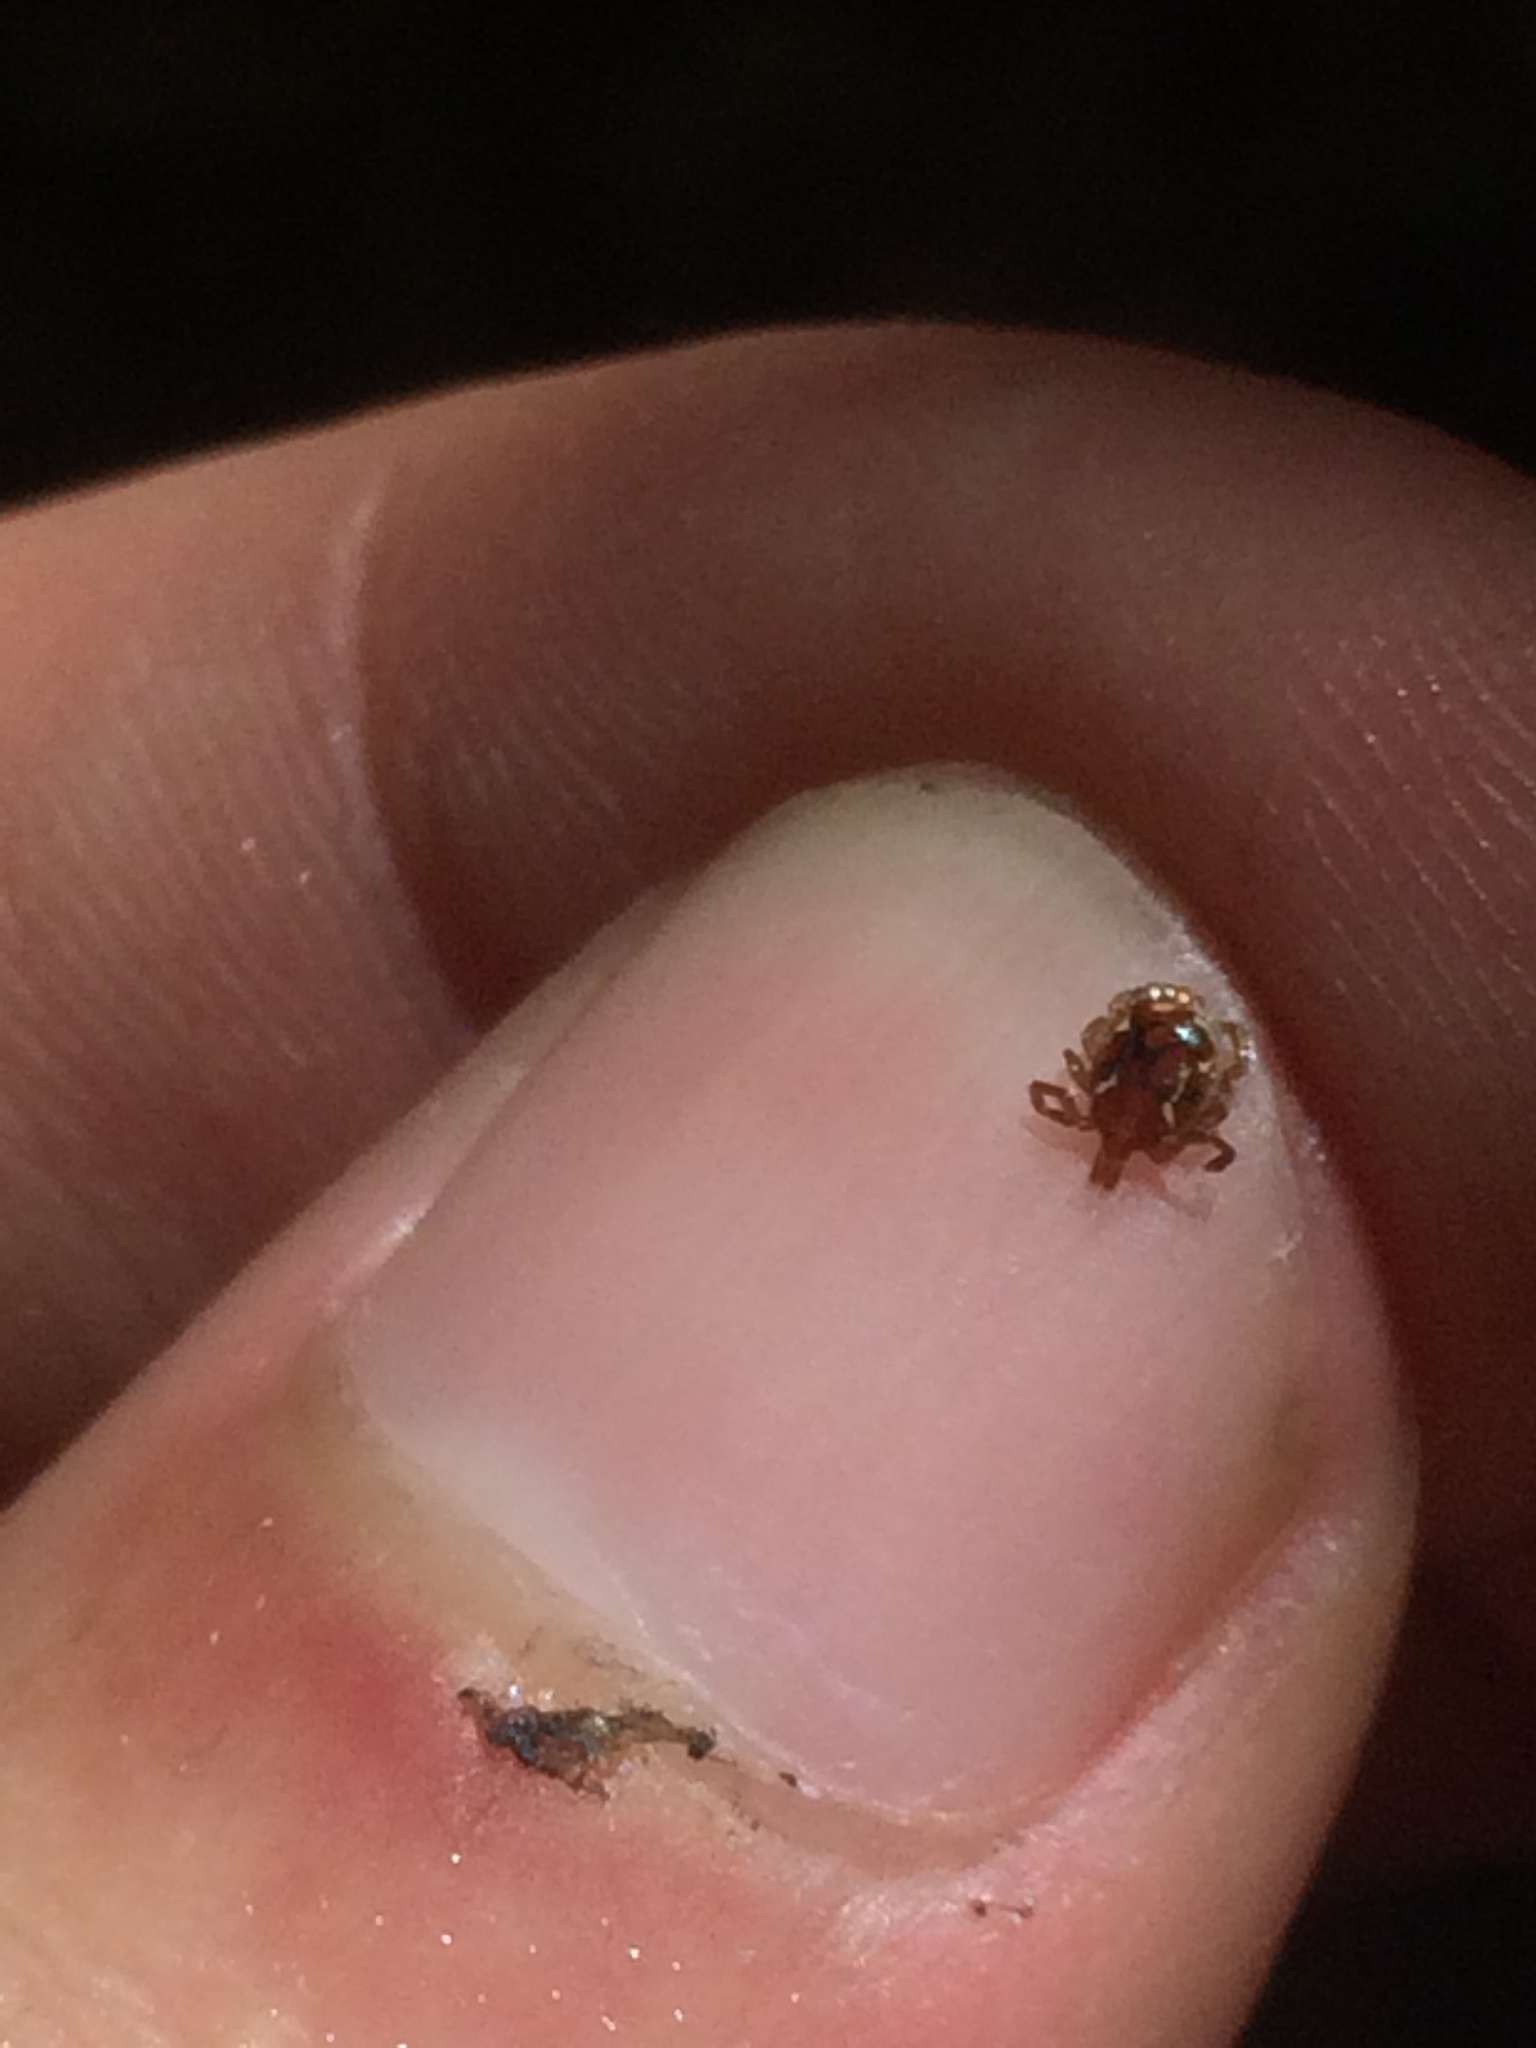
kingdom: Animalia
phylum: Arthropoda
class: Arachnida
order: Ixodida
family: Ixodidae
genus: Amblyomma
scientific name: Amblyomma americanum
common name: Lone star tick
